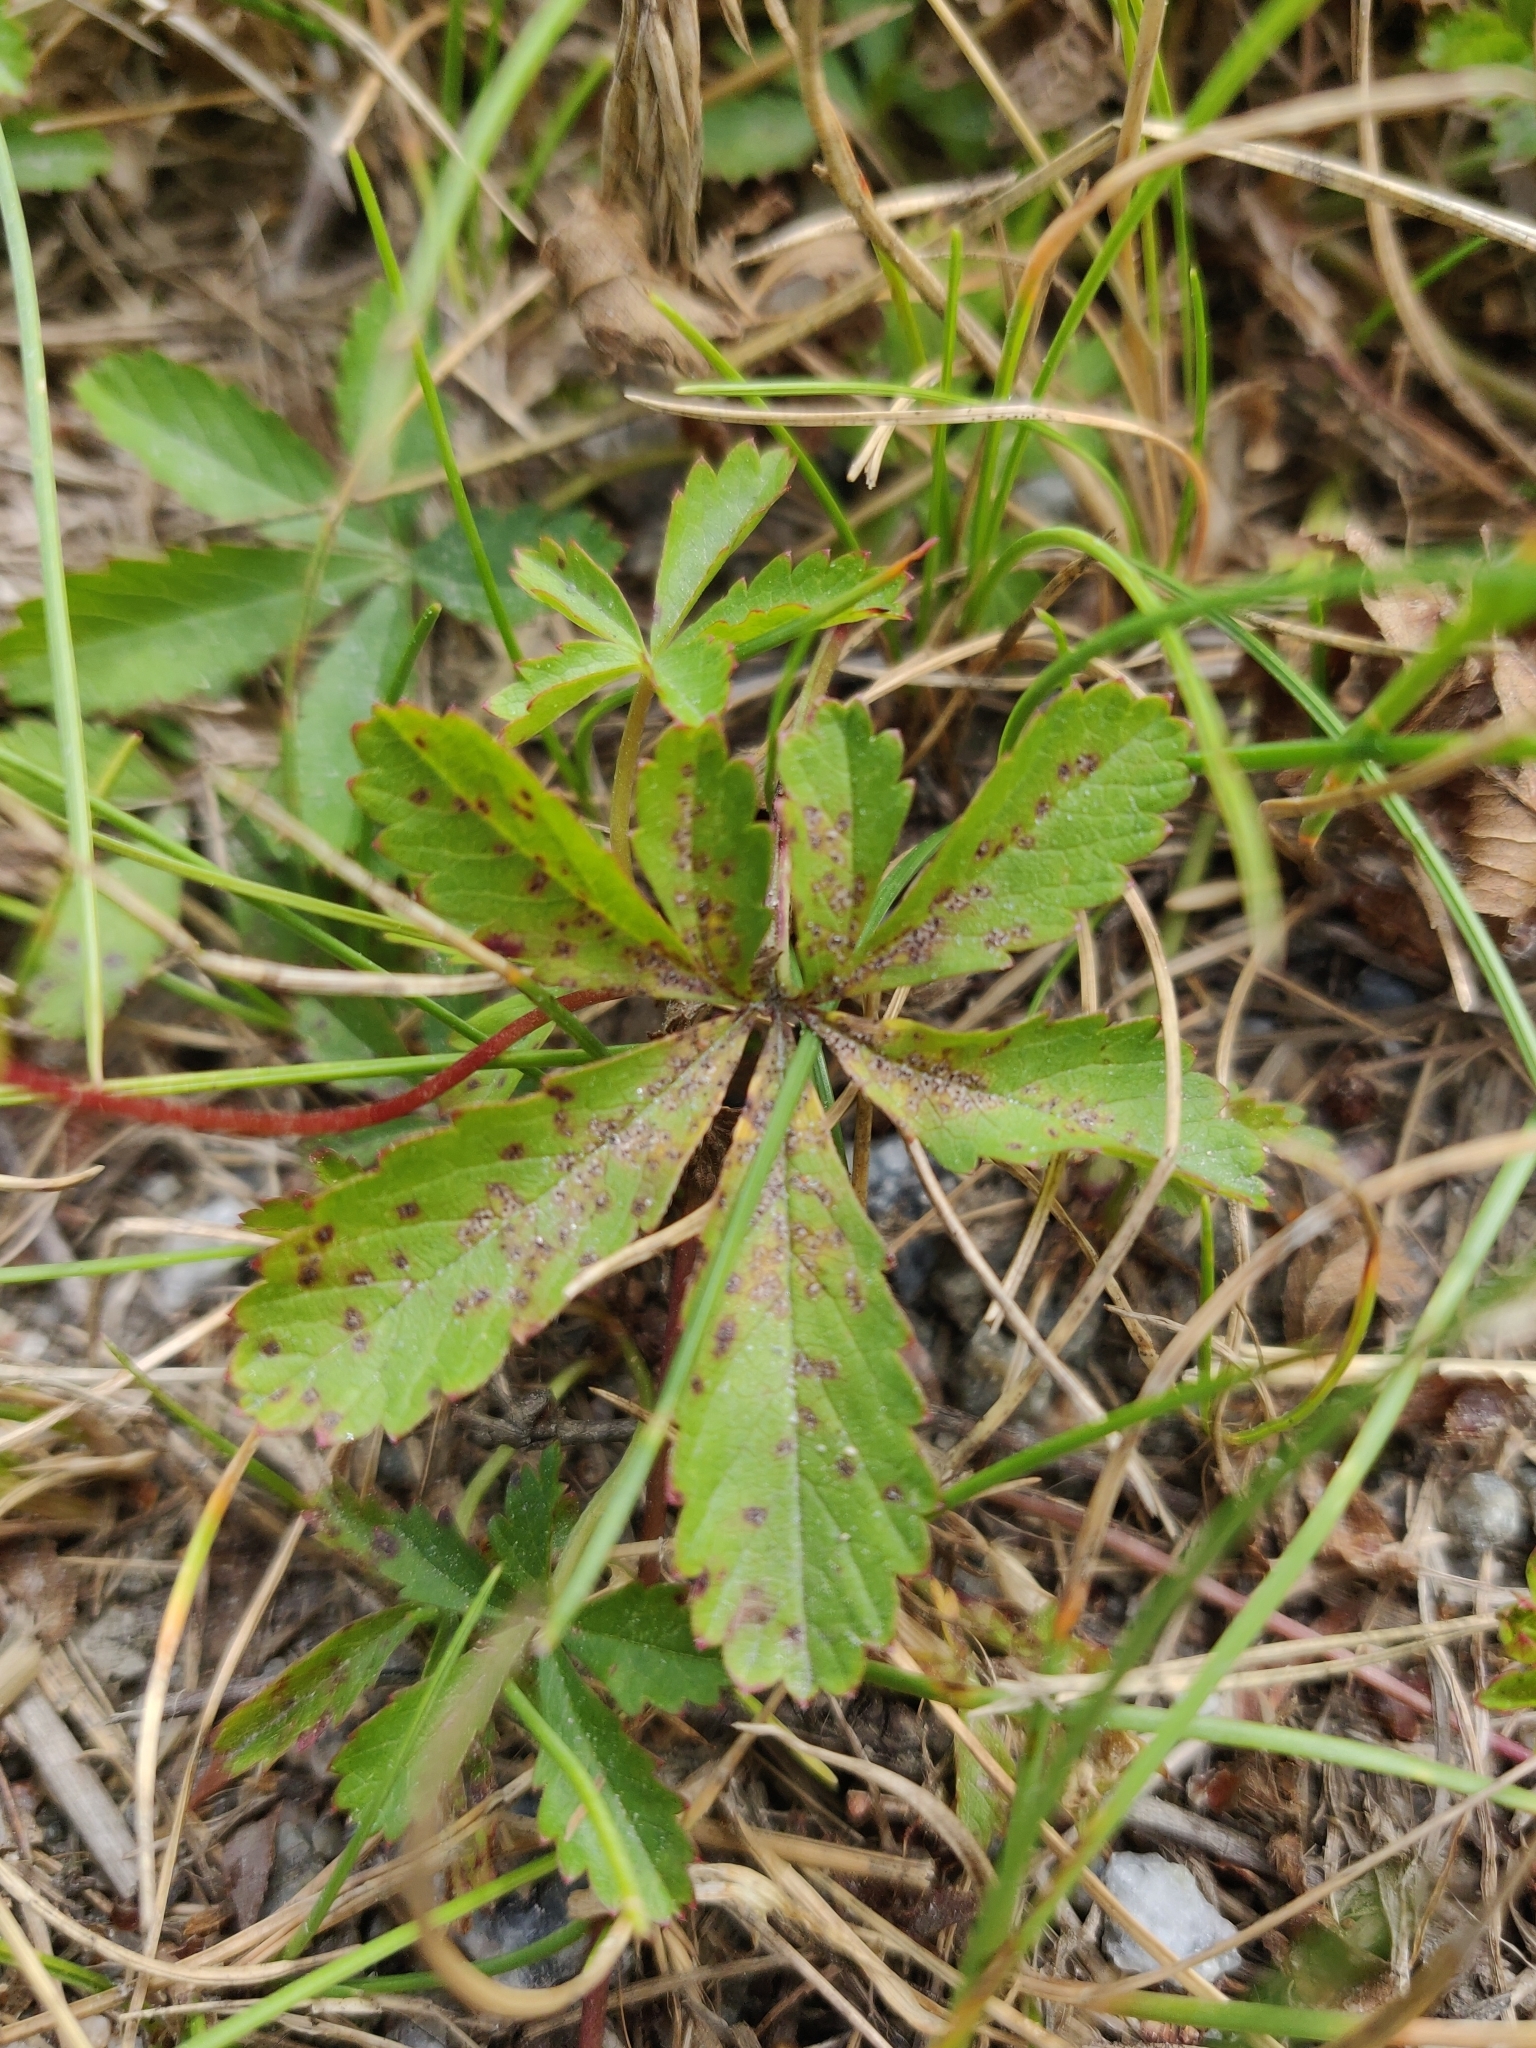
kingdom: Plantae
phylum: Tracheophyta
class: Magnoliopsida
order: Rosales
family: Rosaceae
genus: Potentilla
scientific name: Potentilla reptans
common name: Creeping cinquefoil
